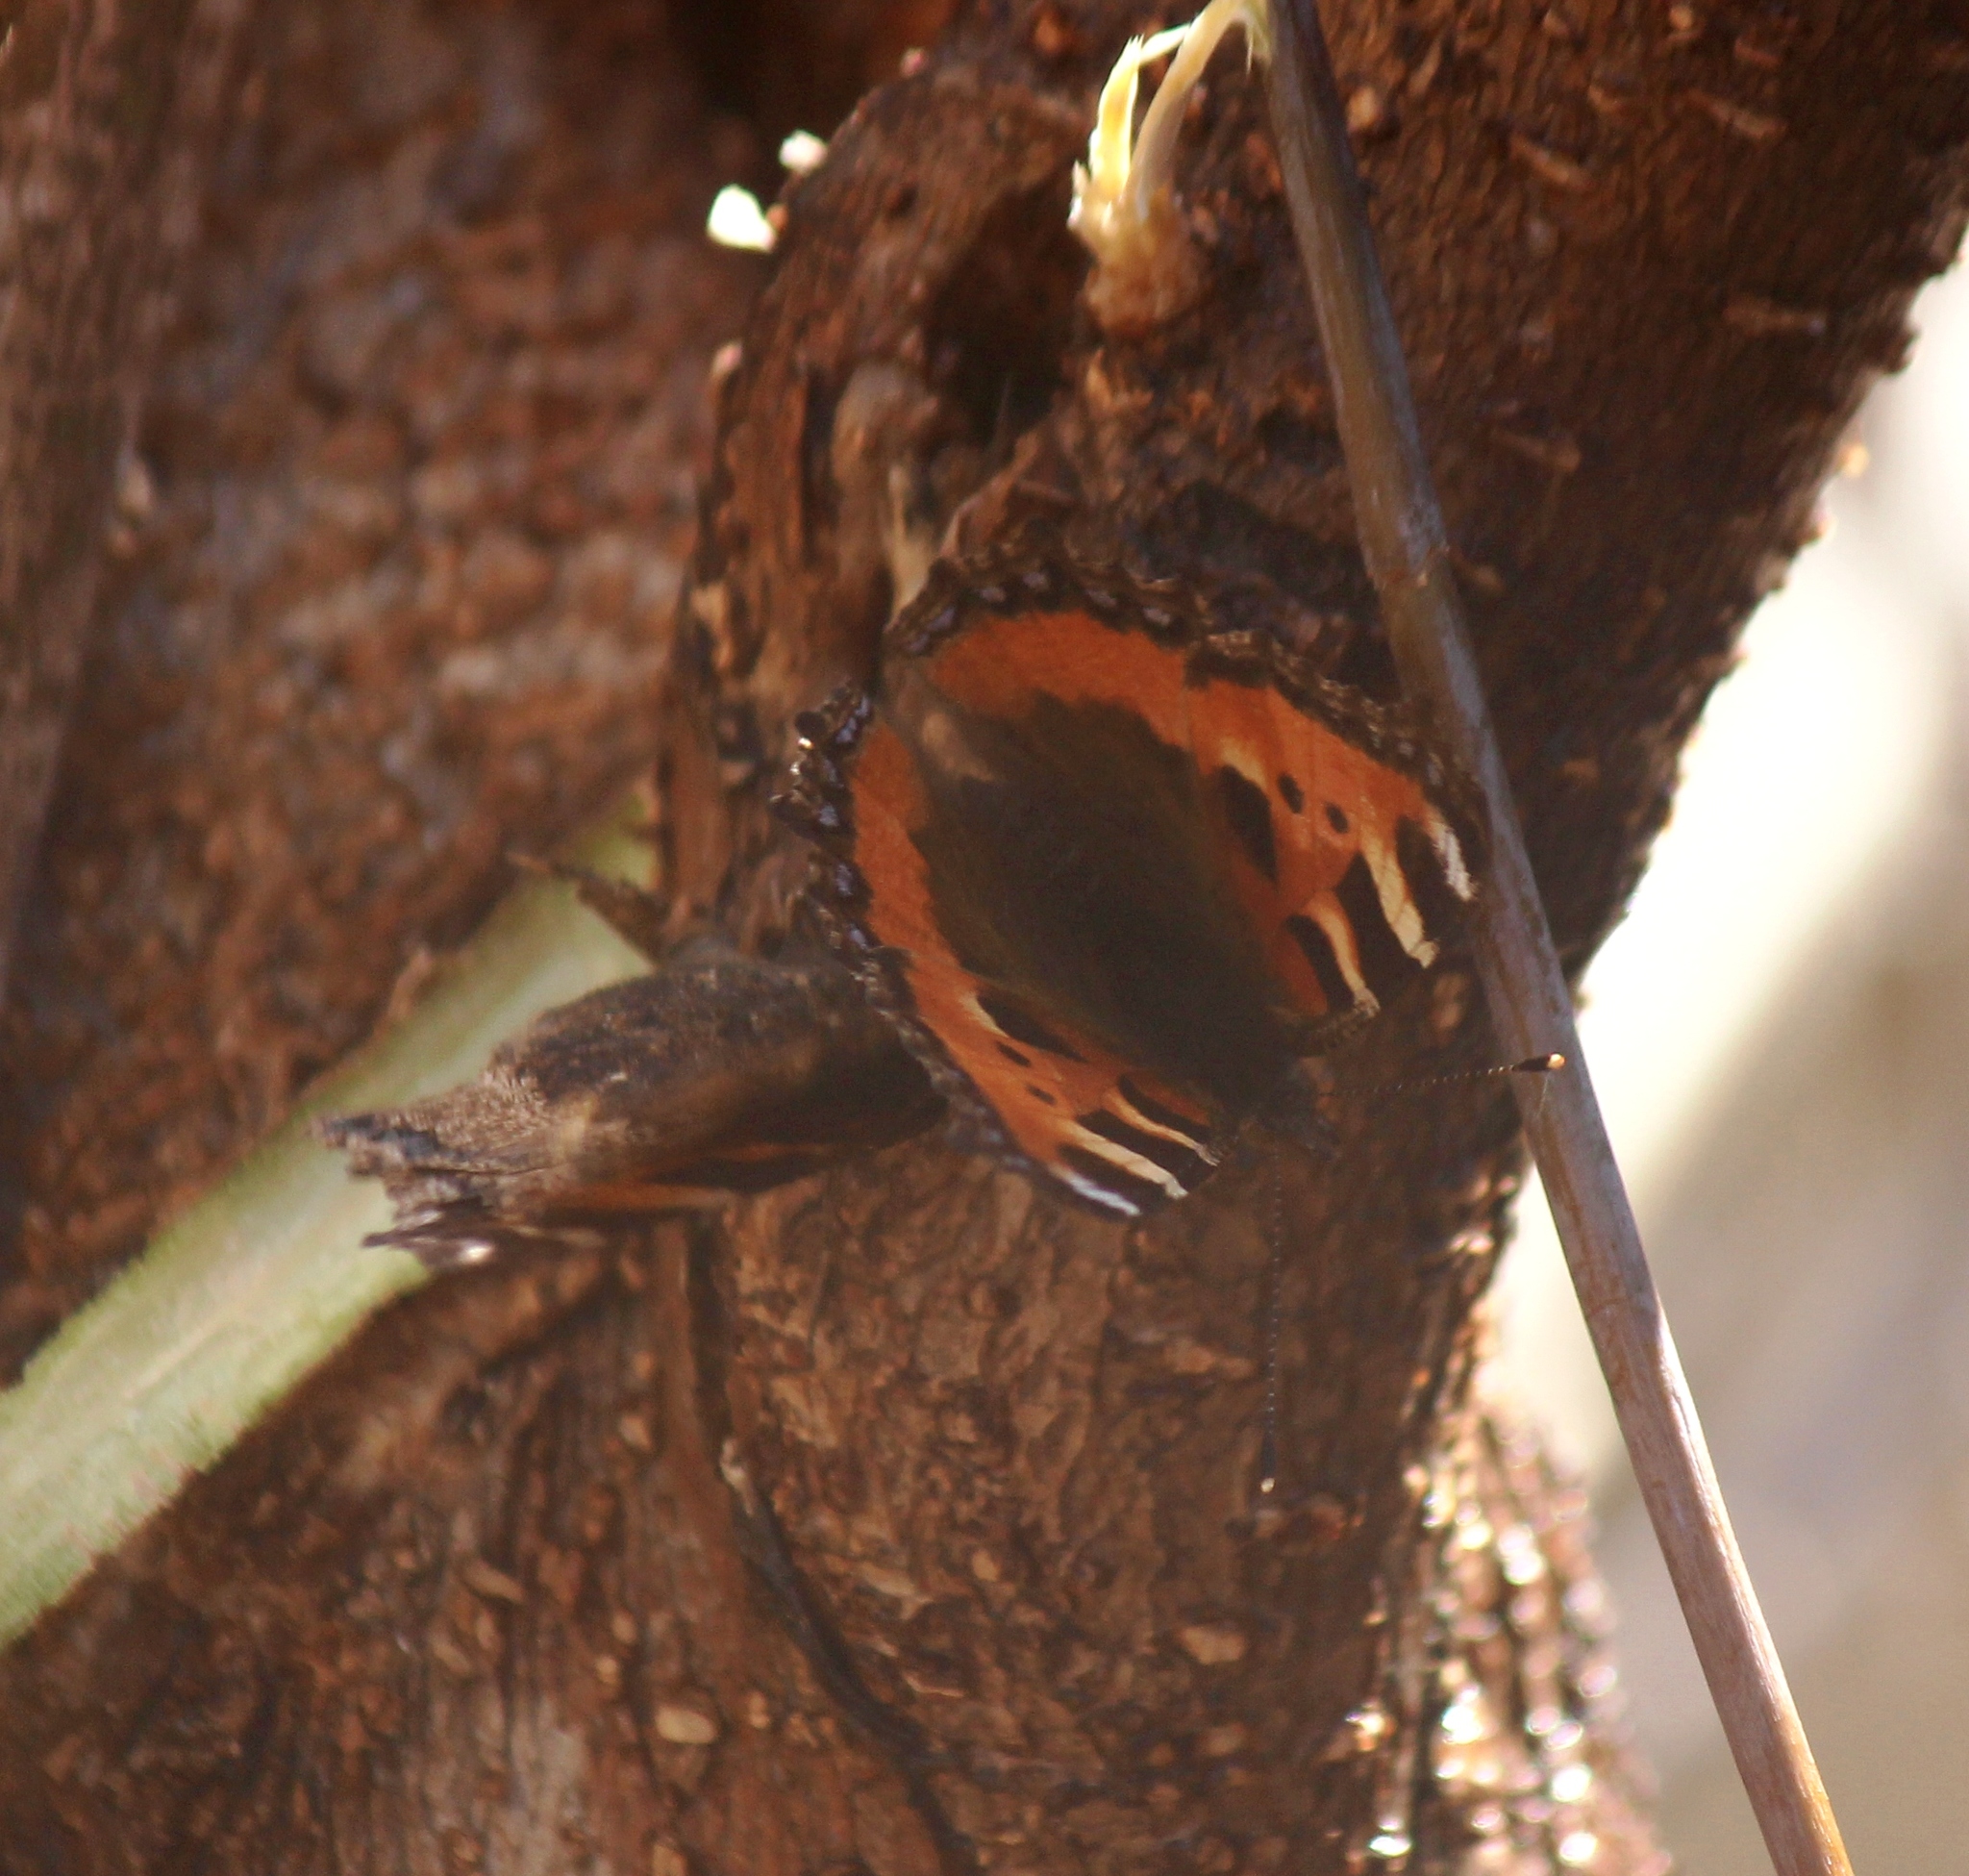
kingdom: Animalia
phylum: Arthropoda
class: Insecta
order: Lepidoptera
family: Nymphalidae
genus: Aglais
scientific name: Aglais urticae
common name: Small tortoiseshell
